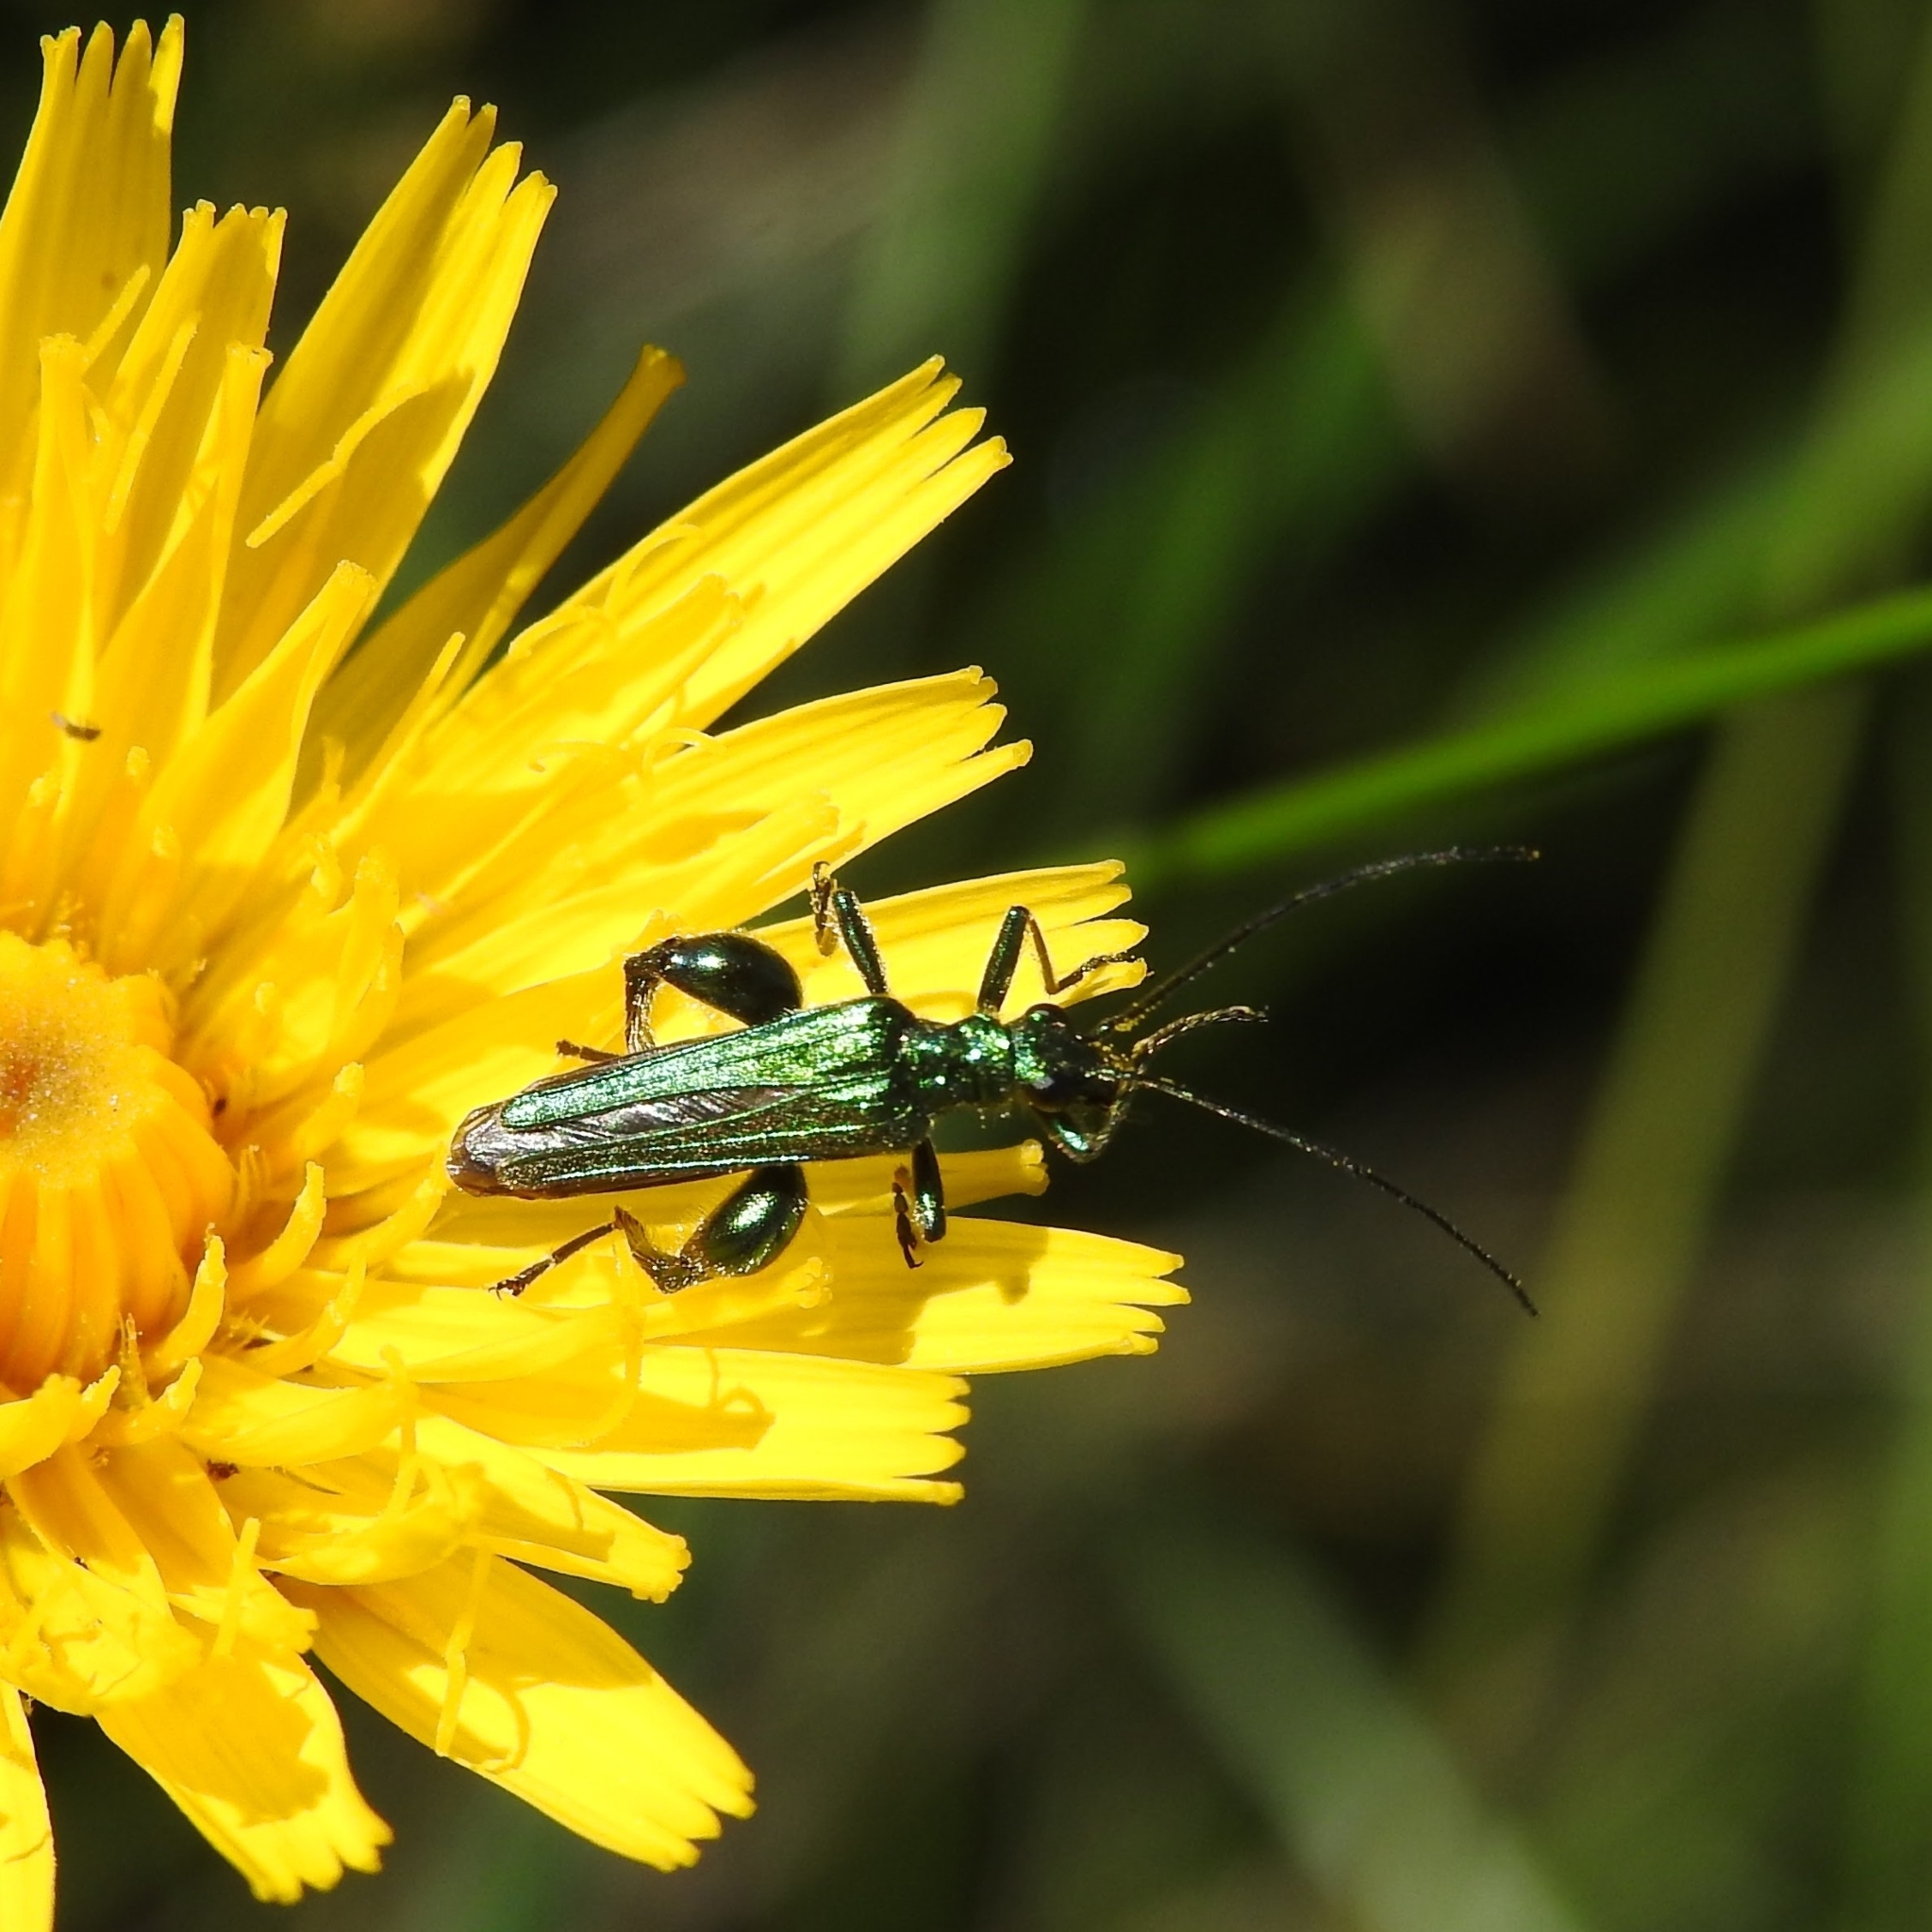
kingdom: Animalia
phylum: Arthropoda
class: Insecta
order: Coleoptera
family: Oedemeridae
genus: Oedemera
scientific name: Oedemera nobilis
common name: Swollen-thighed beetle
